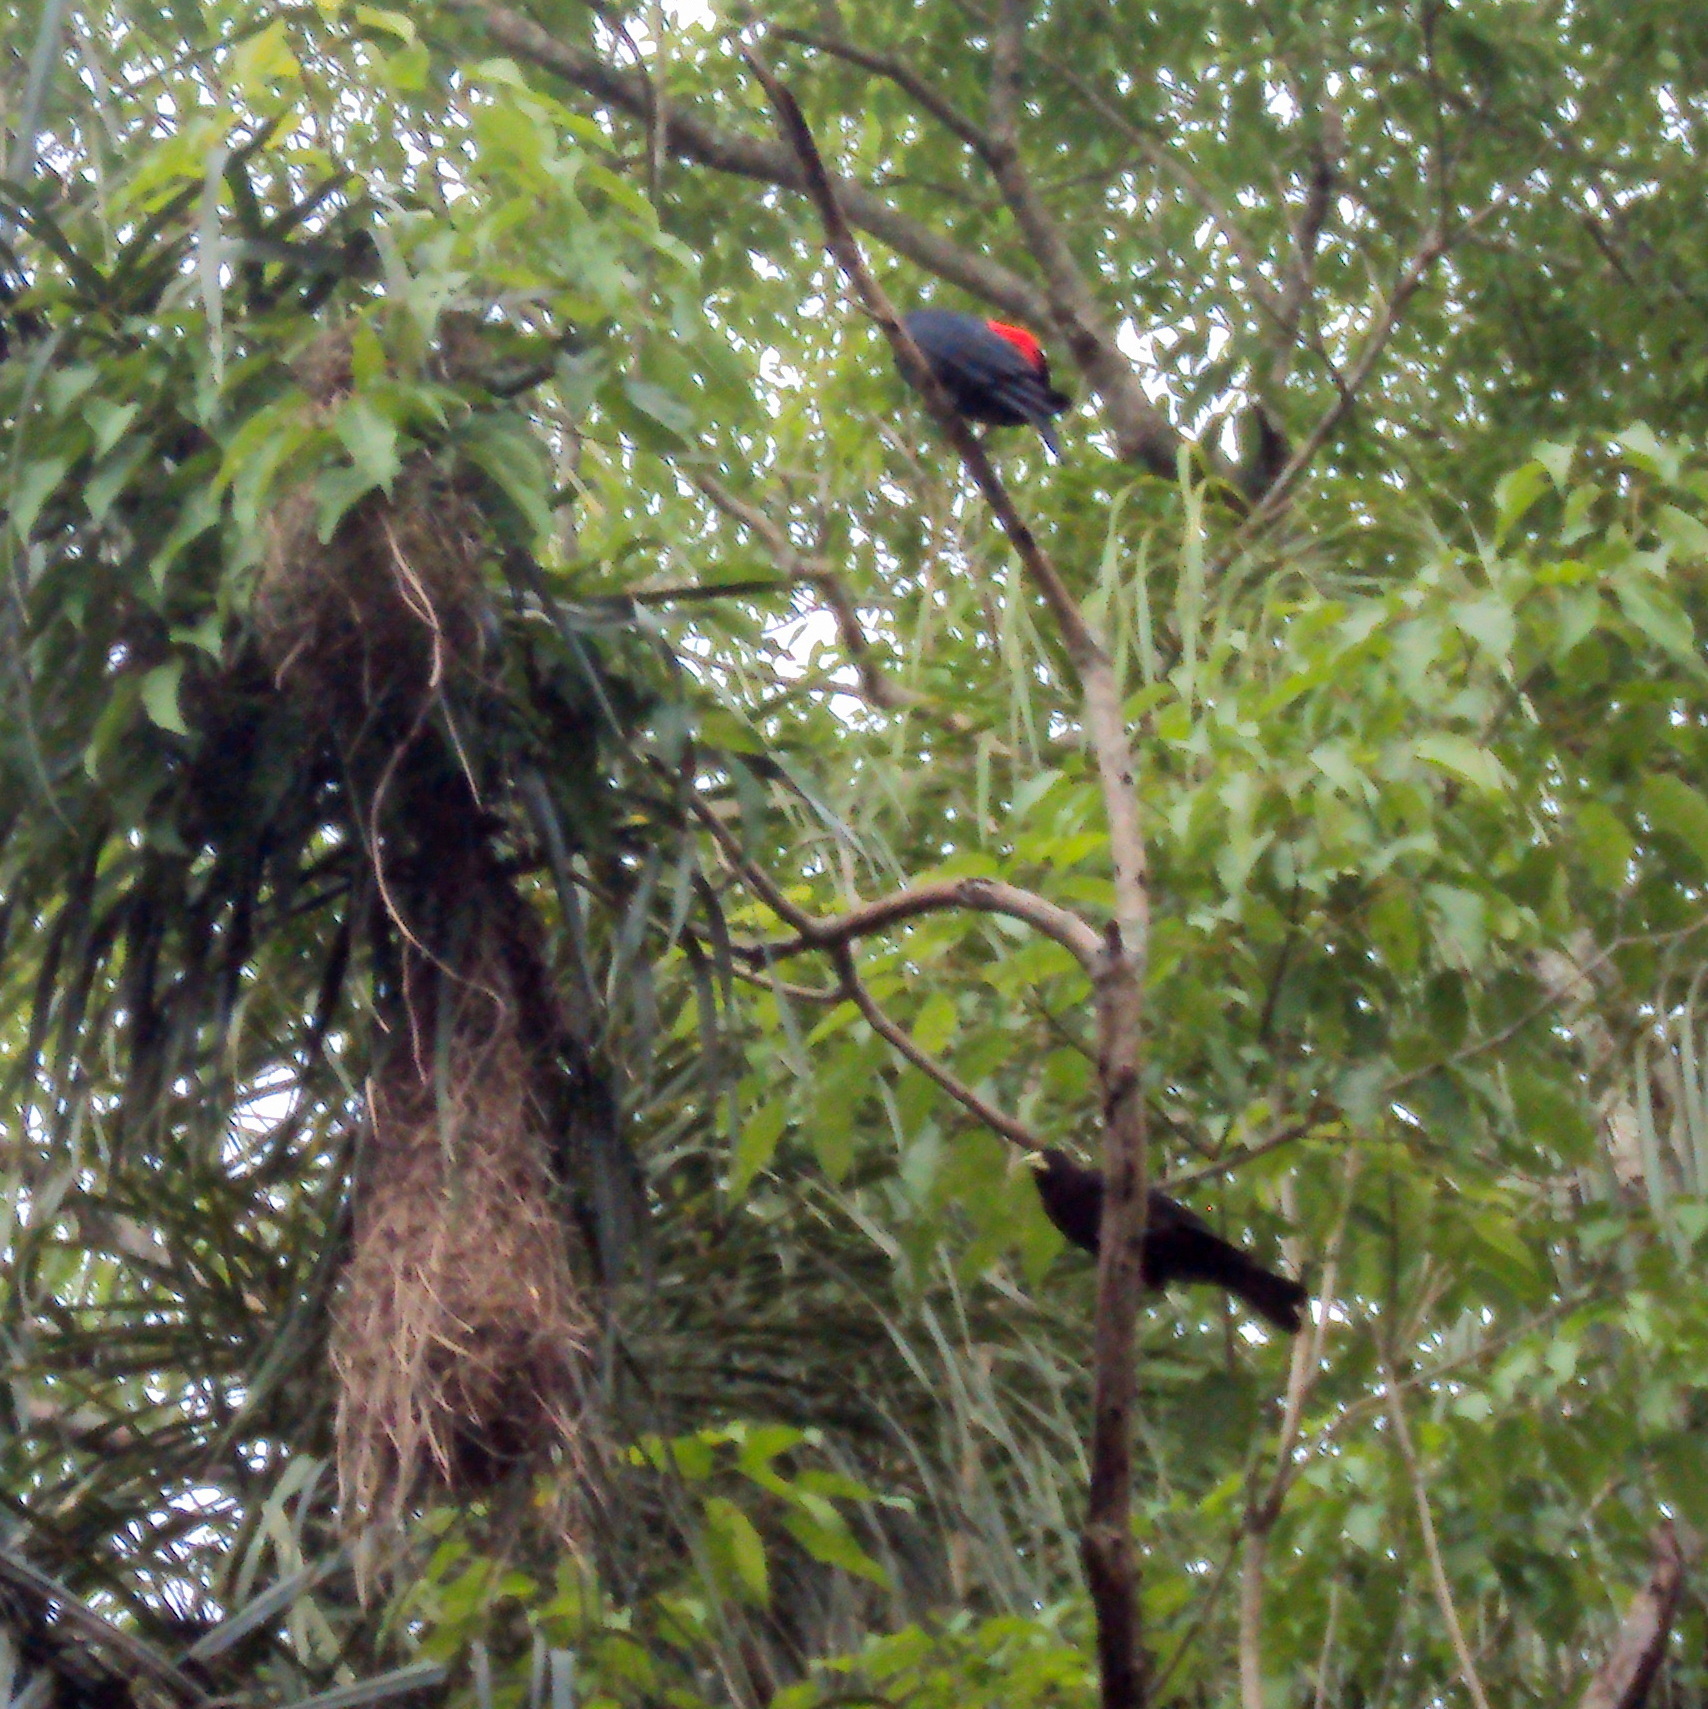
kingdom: Animalia
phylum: Chordata
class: Aves
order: Passeriformes
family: Icteridae
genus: Cacicus
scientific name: Cacicus haemorrhous
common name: Red-rumped cacique
